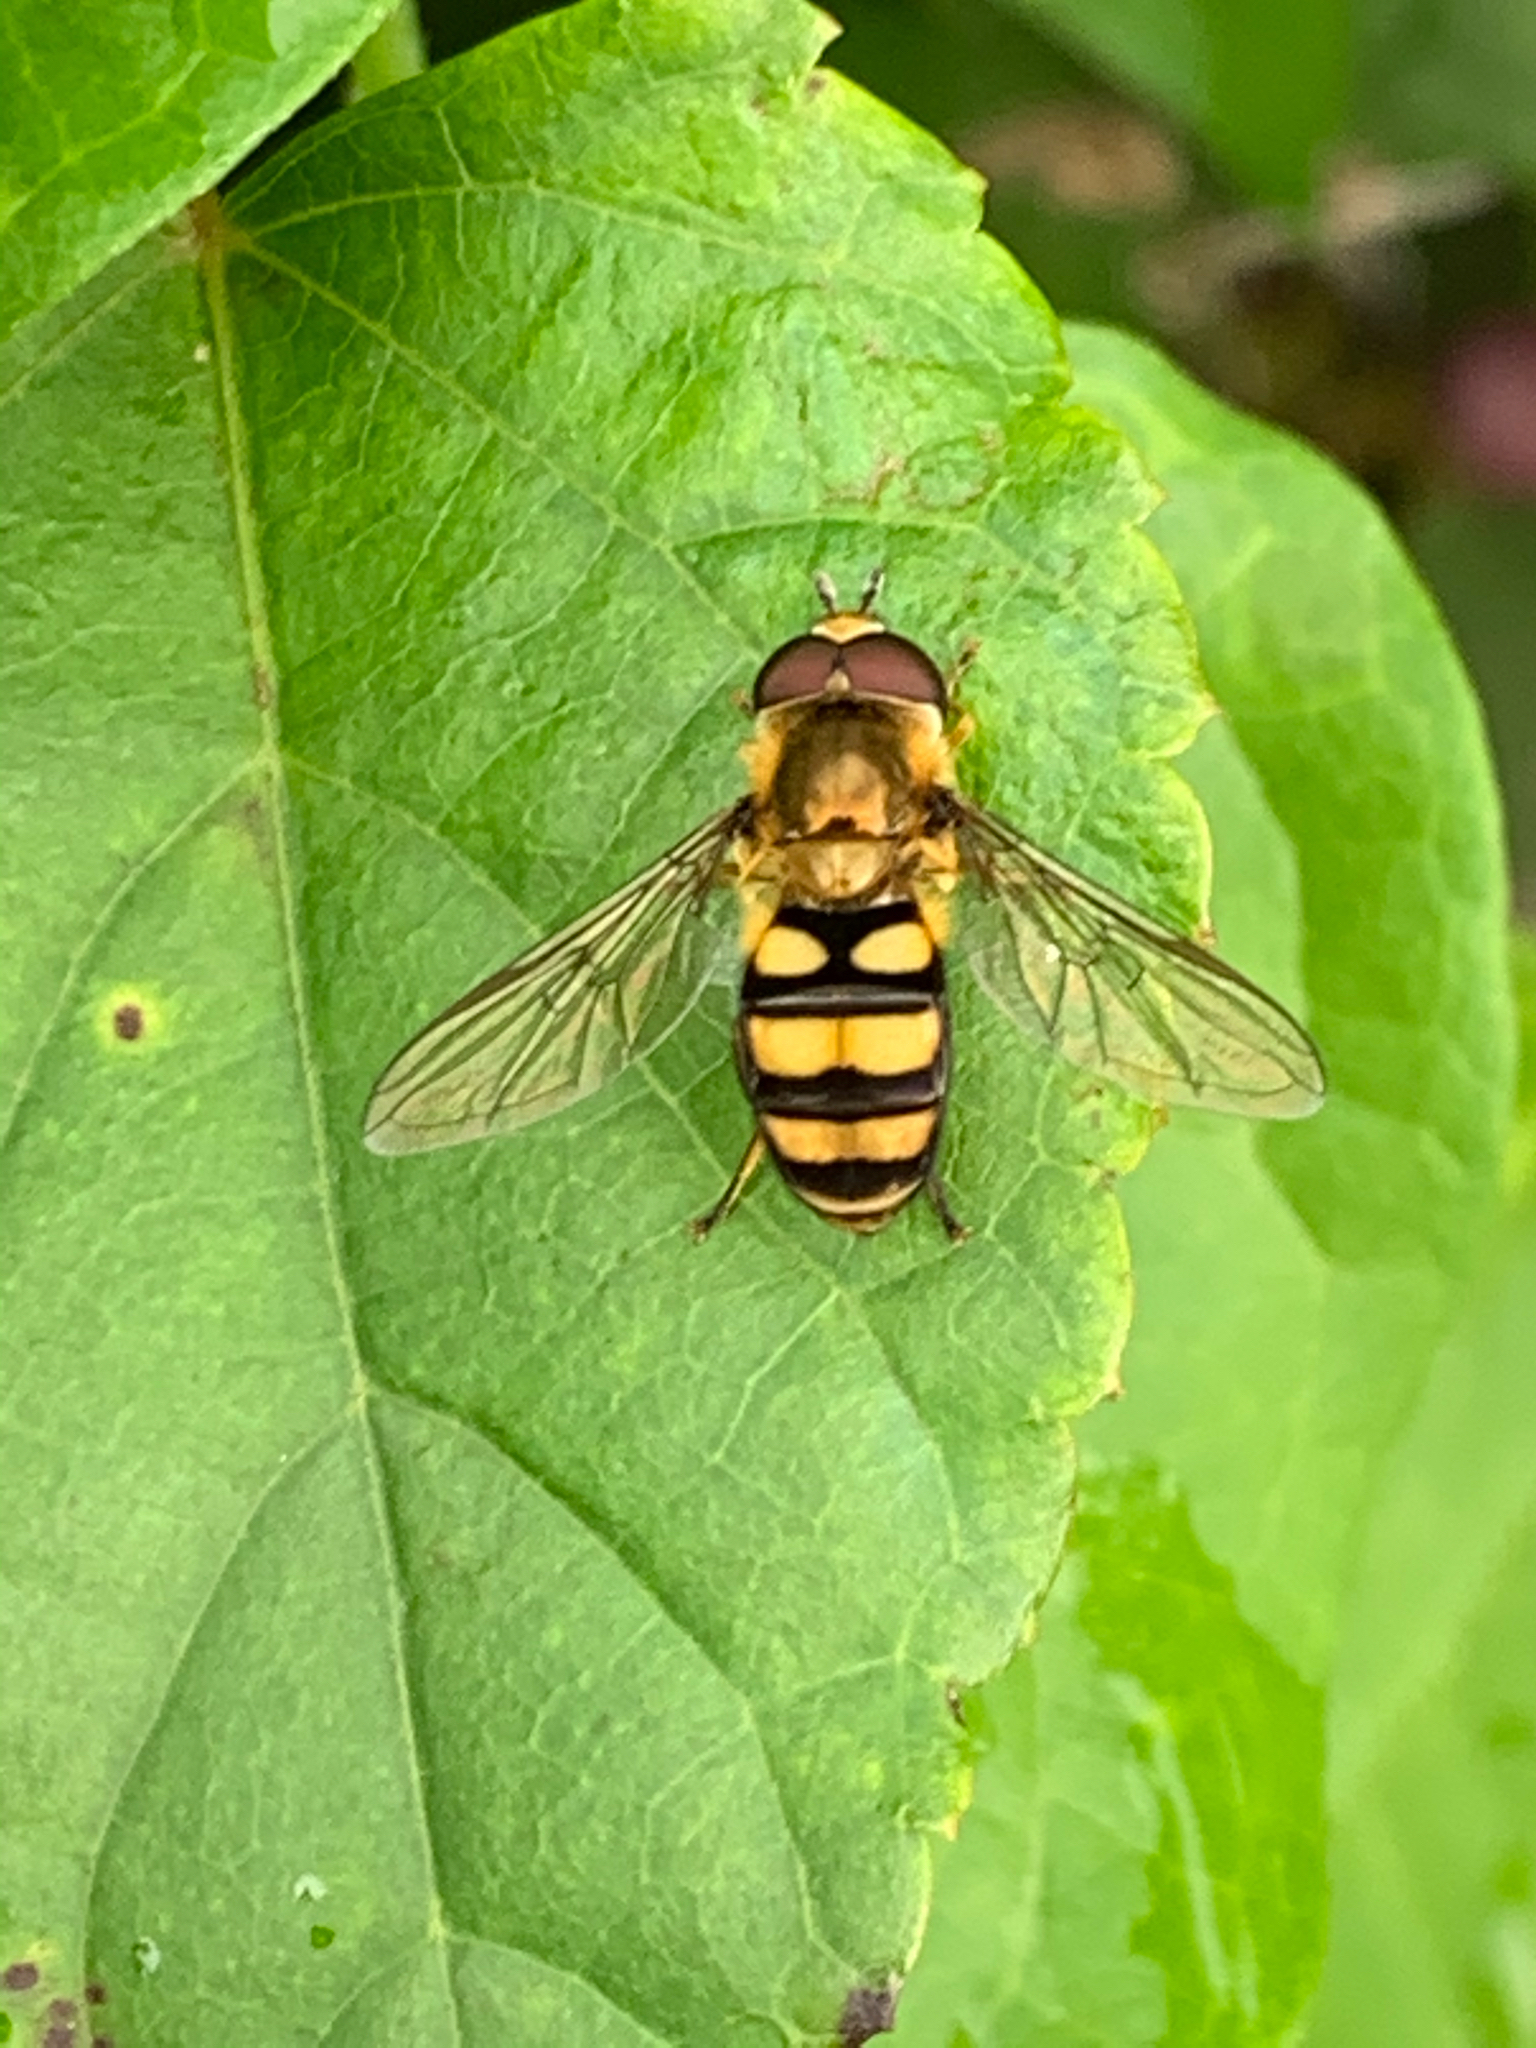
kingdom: Animalia
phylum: Arthropoda
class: Insecta
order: Diptera
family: Syrphidae
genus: Eupeodes
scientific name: Eupeodes
